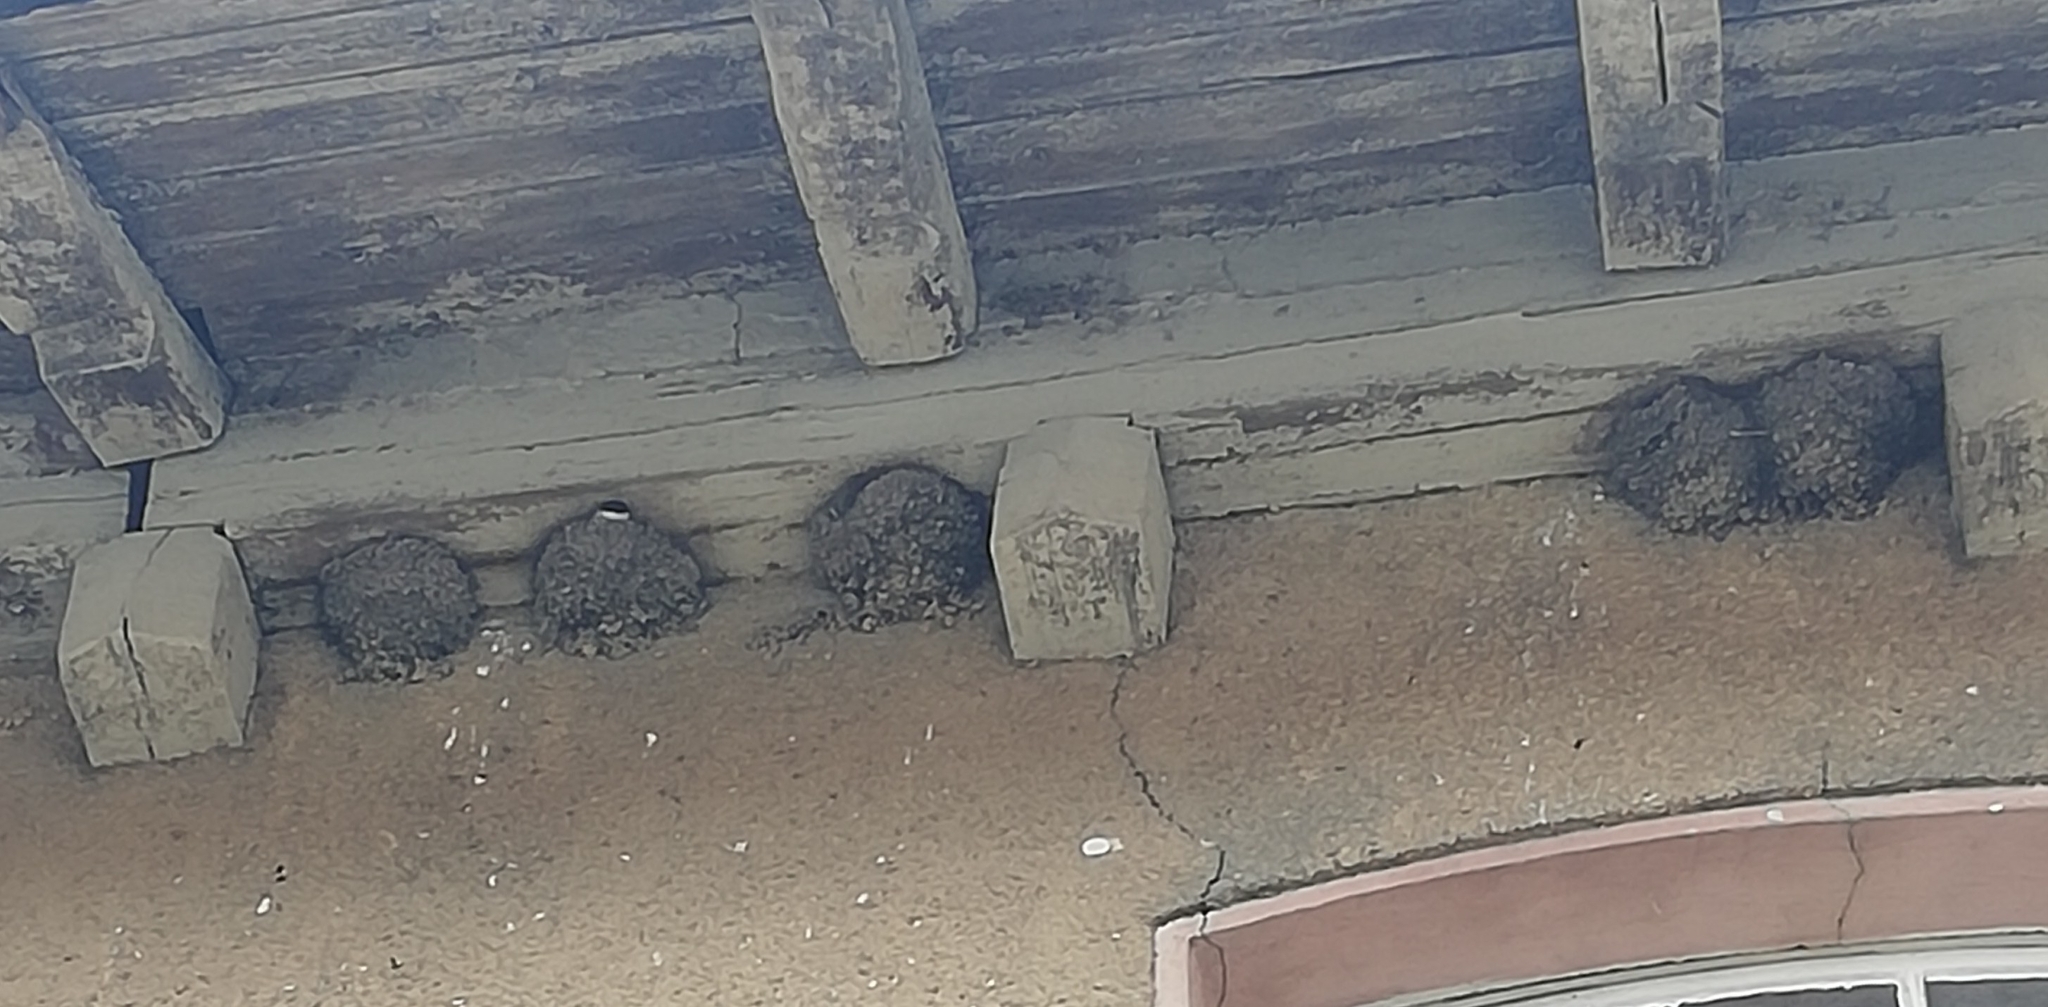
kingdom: Animalia
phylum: Chordata
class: Aves
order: Passeriformes
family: Hirundinidae
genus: Delichon
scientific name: Delichon urbicum
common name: Common house martin
